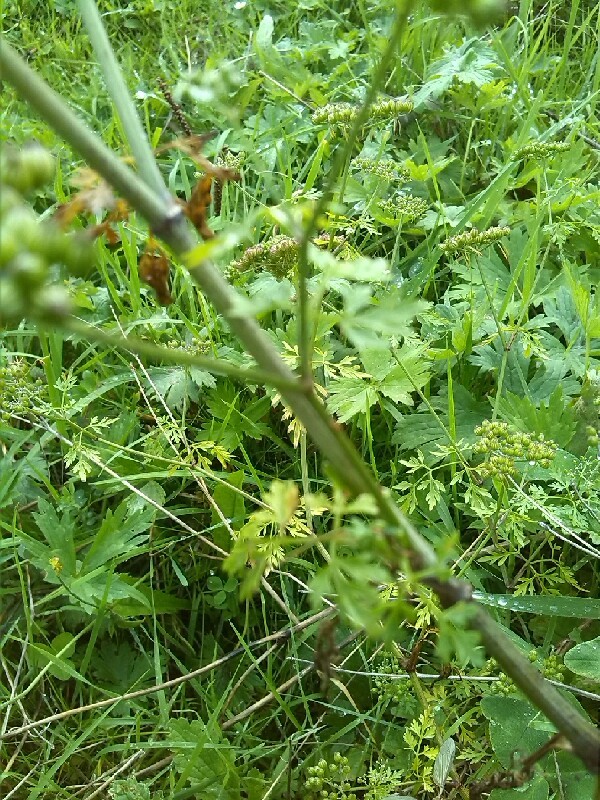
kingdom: Plantae
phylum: Tracheophyta
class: Magnoliopsida
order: Apiales
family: Apiaceae
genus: Aethusa
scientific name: Aethusa cynapium
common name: Fool's parsley
